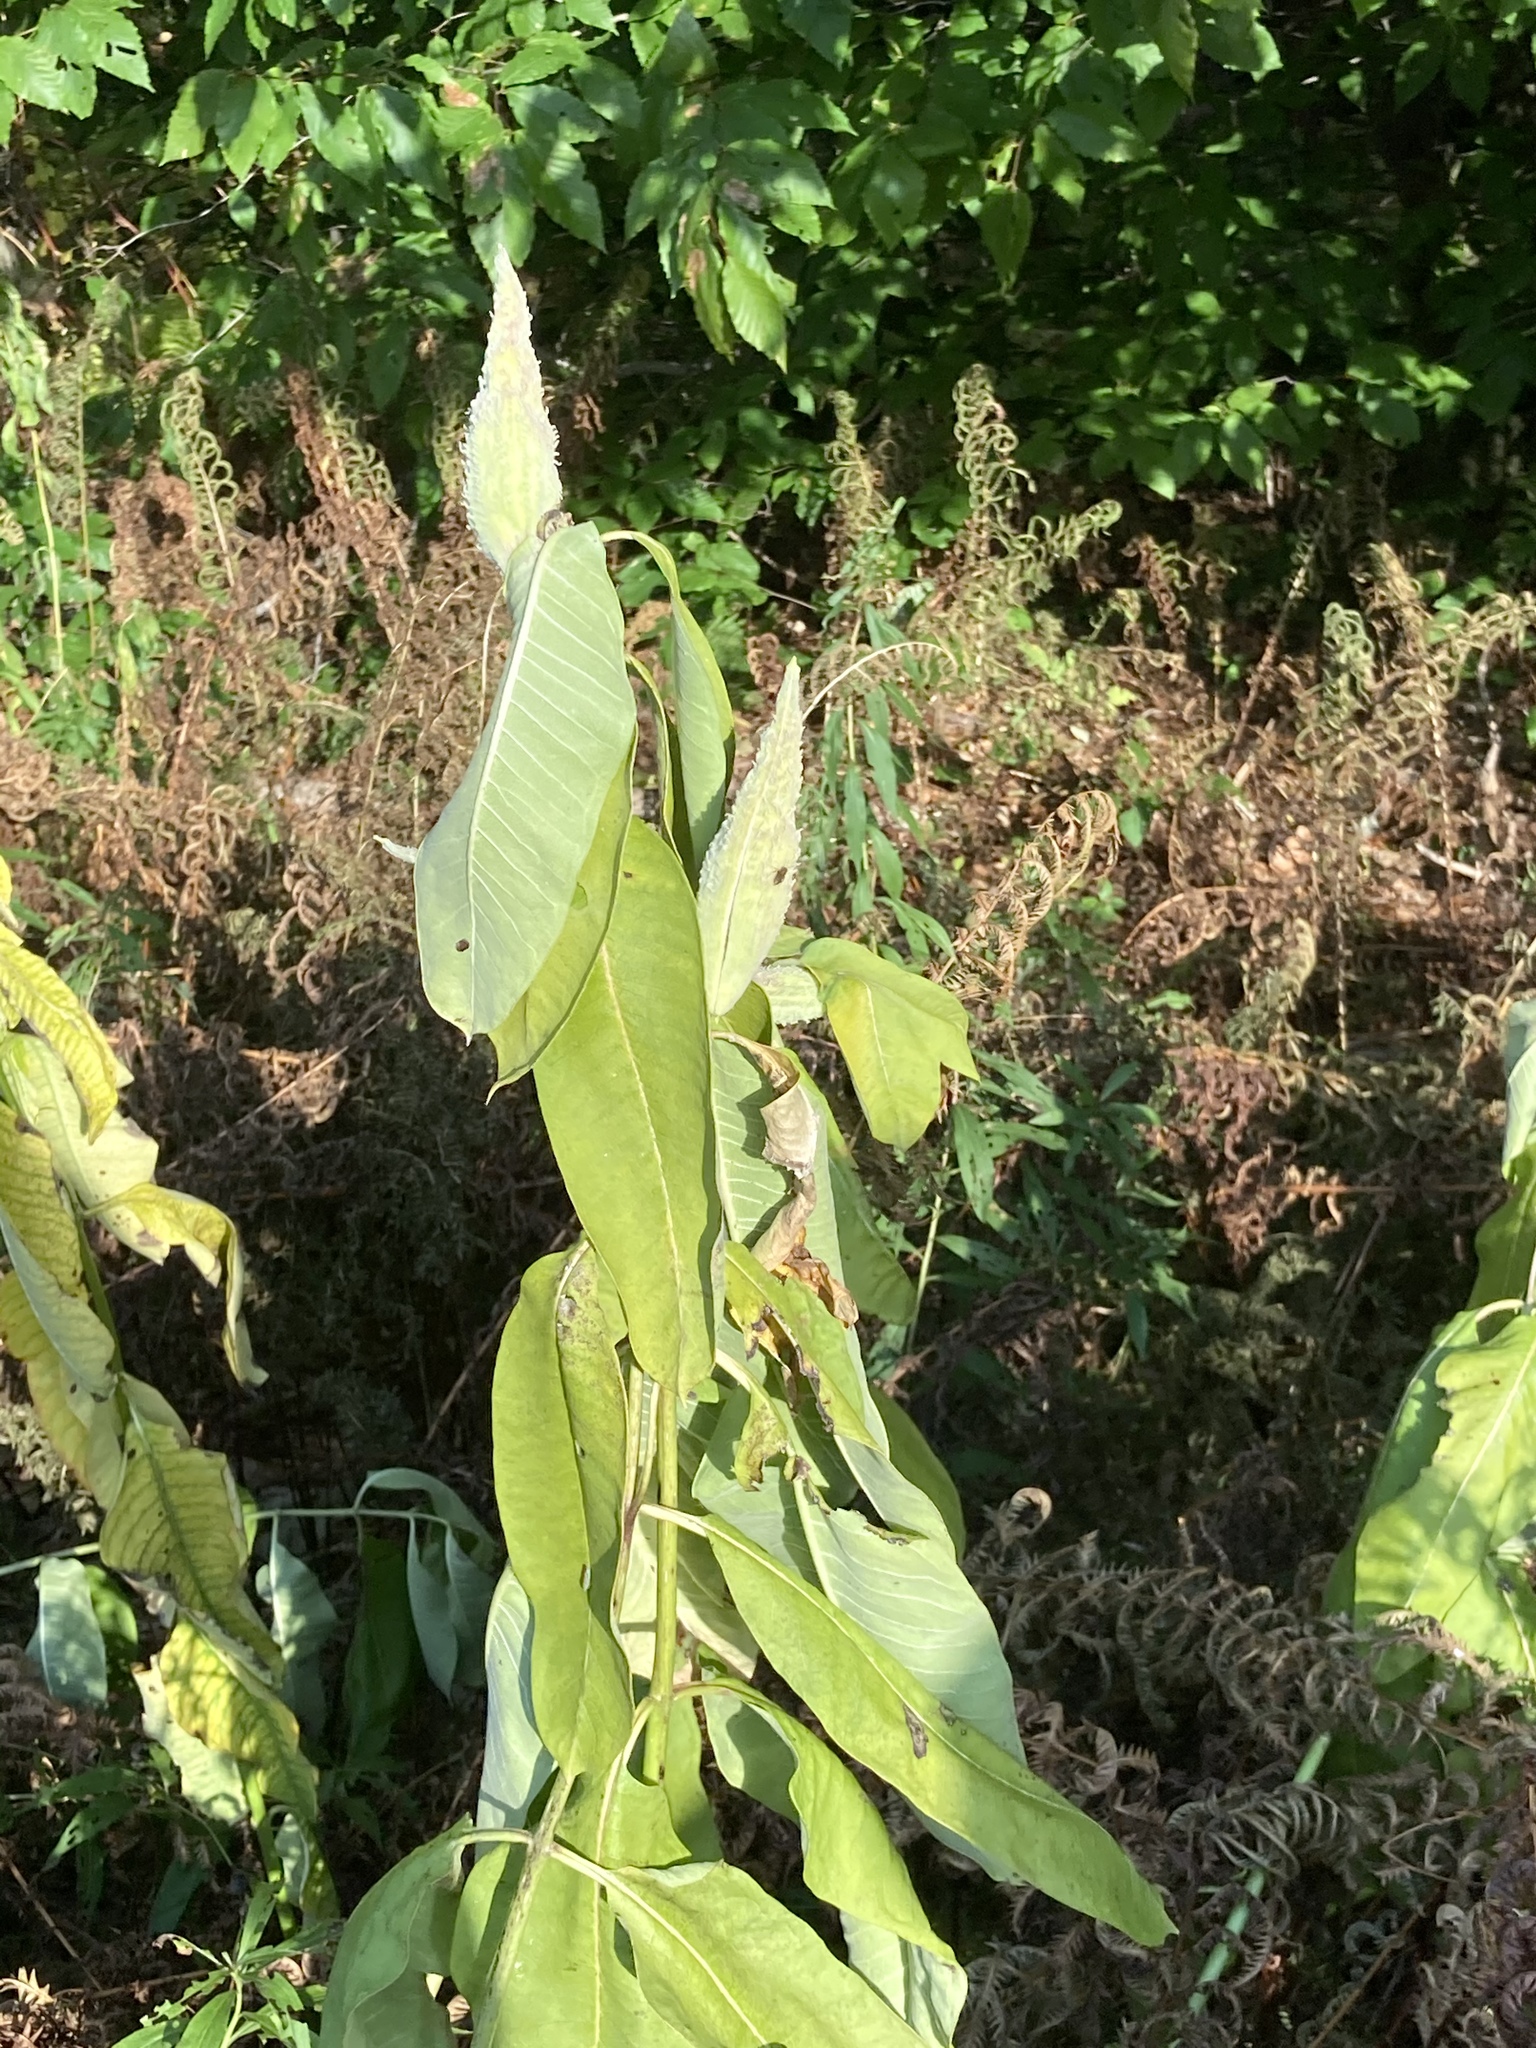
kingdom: Plantae
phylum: Tracheophyta
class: Magnoliopsida
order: Gentianales
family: Apocynaceae
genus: Asclepias
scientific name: Asclepias syriaca
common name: Common milkweed
